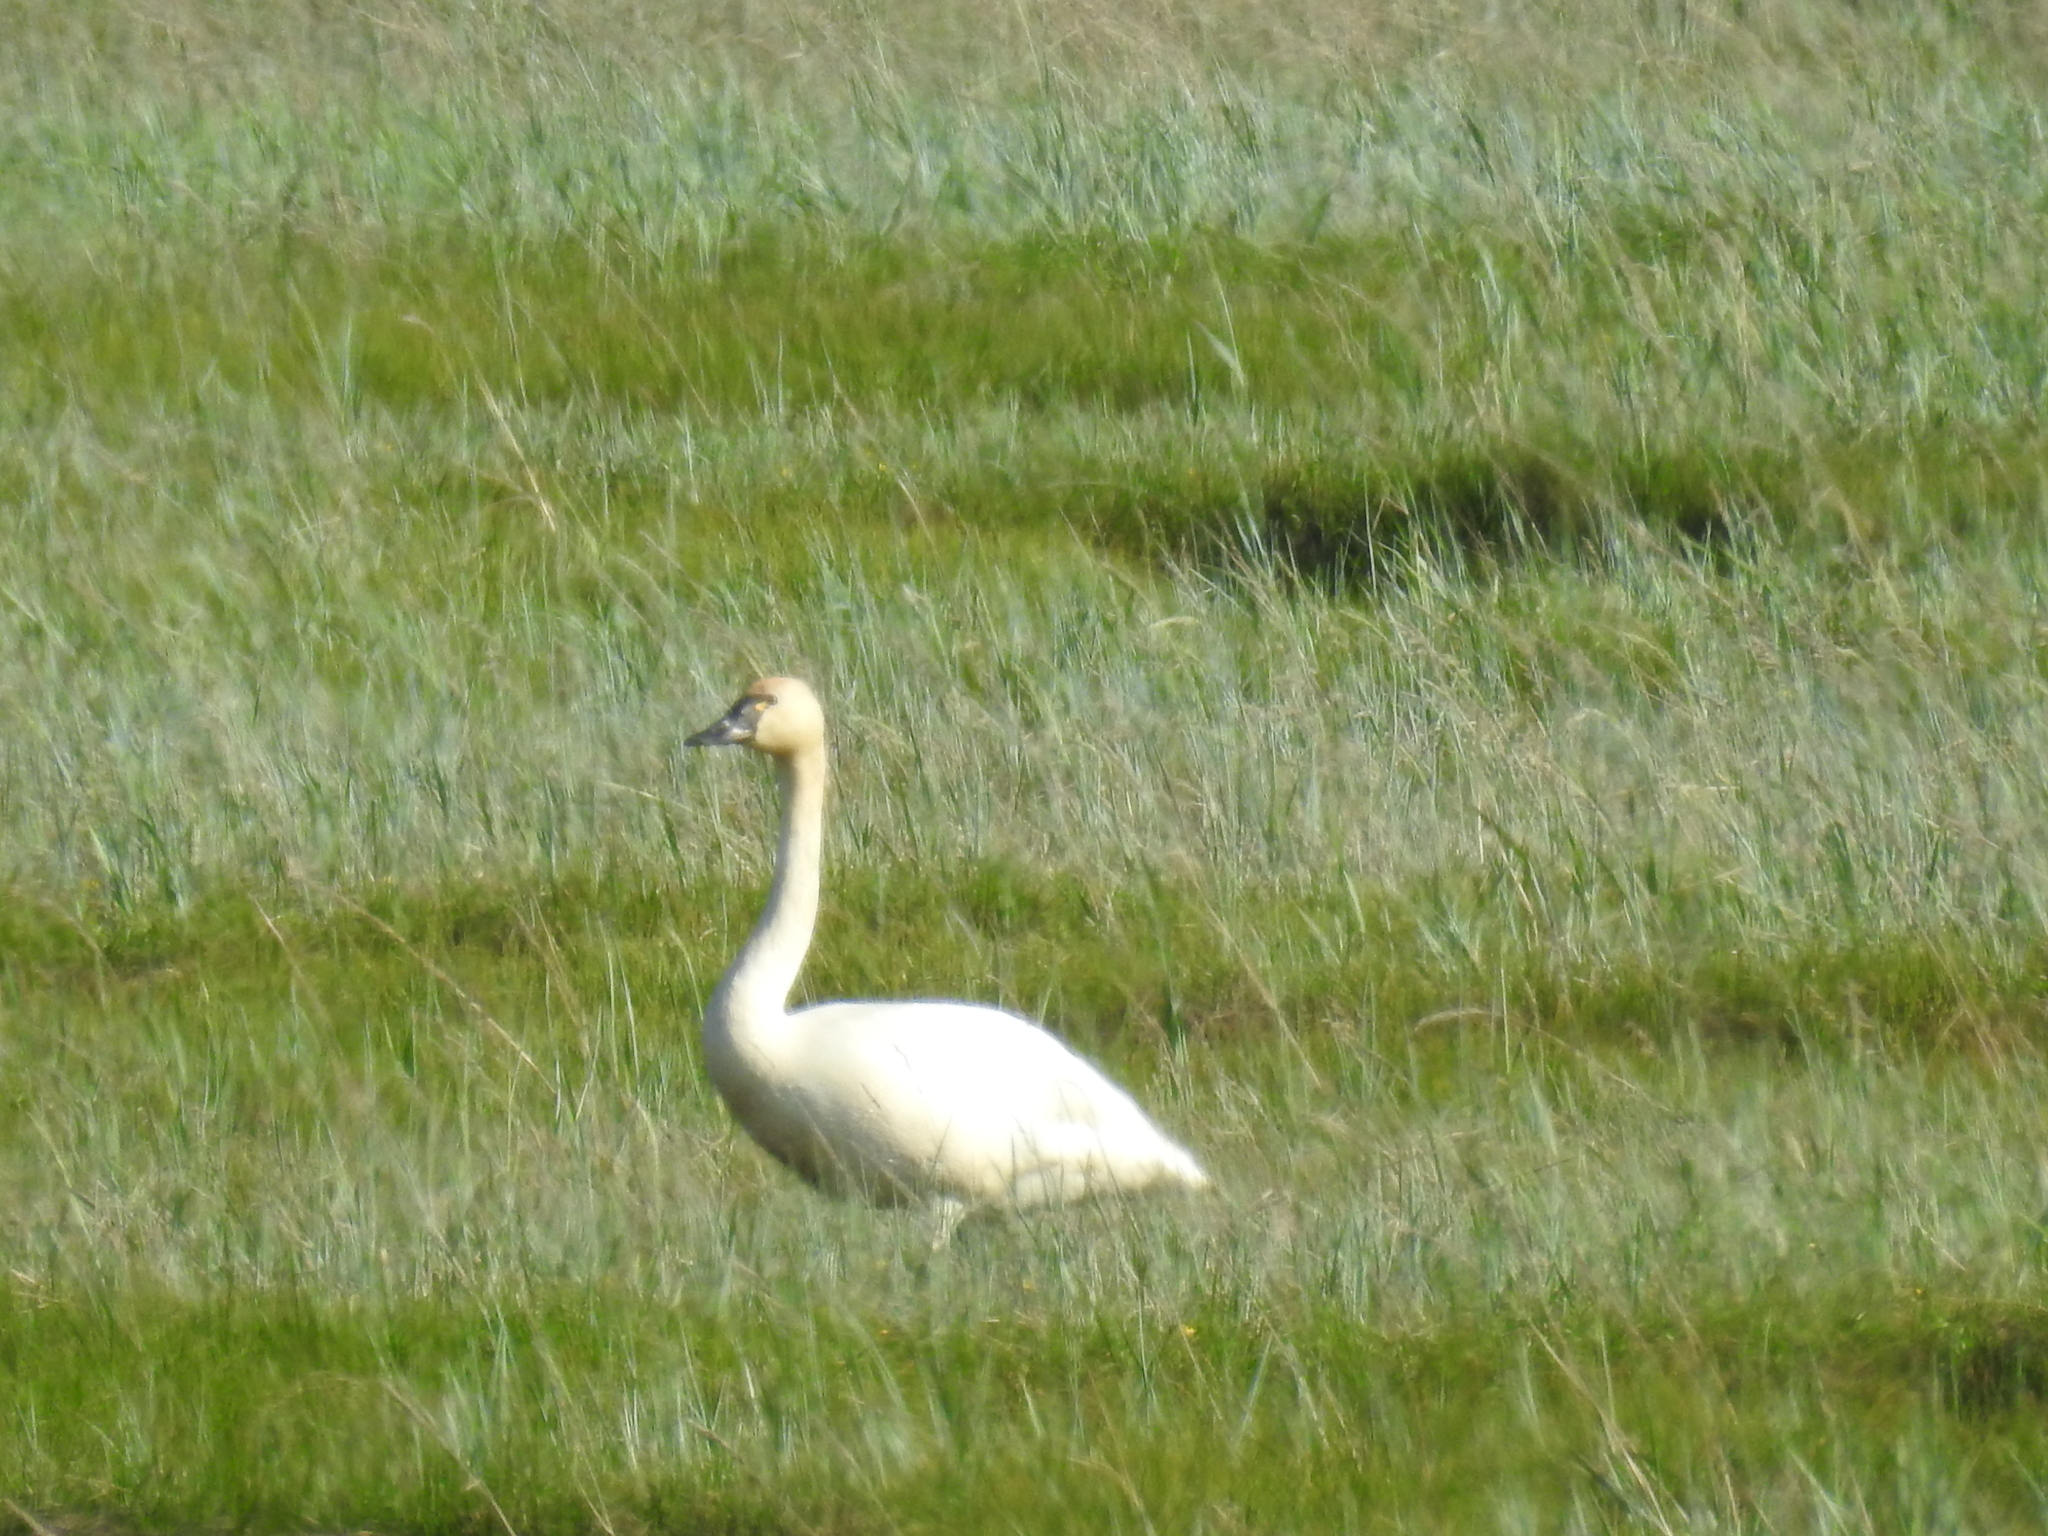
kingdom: Animalia
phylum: Chordata
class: Aves
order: Anseriformes
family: Anatidae
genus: Cygnus
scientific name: Cygnus columbianus
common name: Tundra swan
